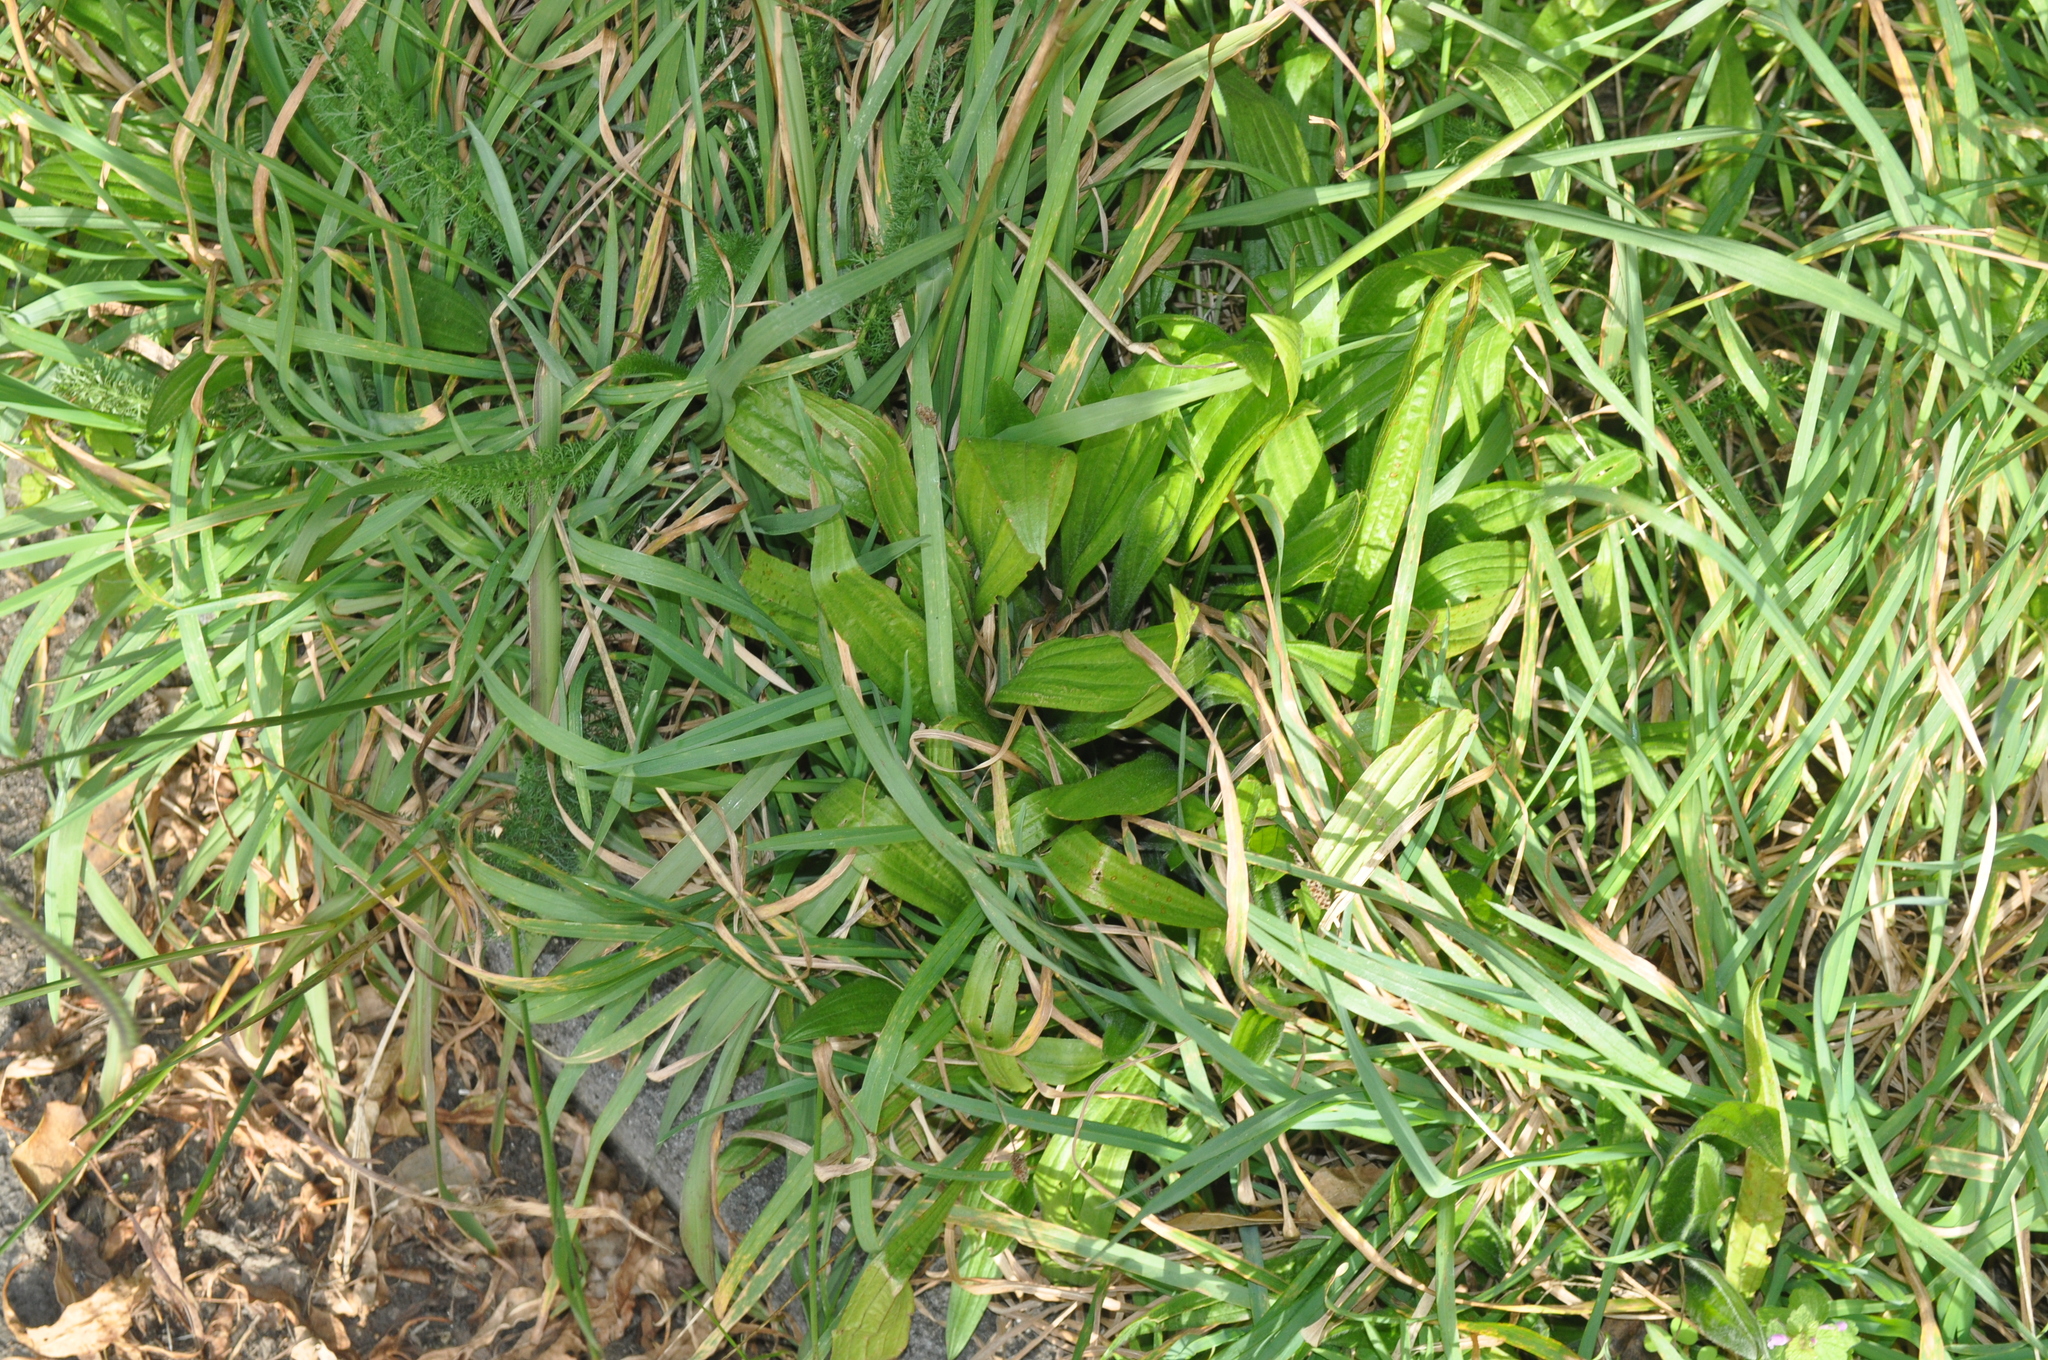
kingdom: Plantae
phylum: Tracheophyta
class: Magnoliopsida
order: Lamiales
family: Plantaginaceae
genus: Plantago
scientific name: Plantago lanceolata
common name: Ribwort plantain
